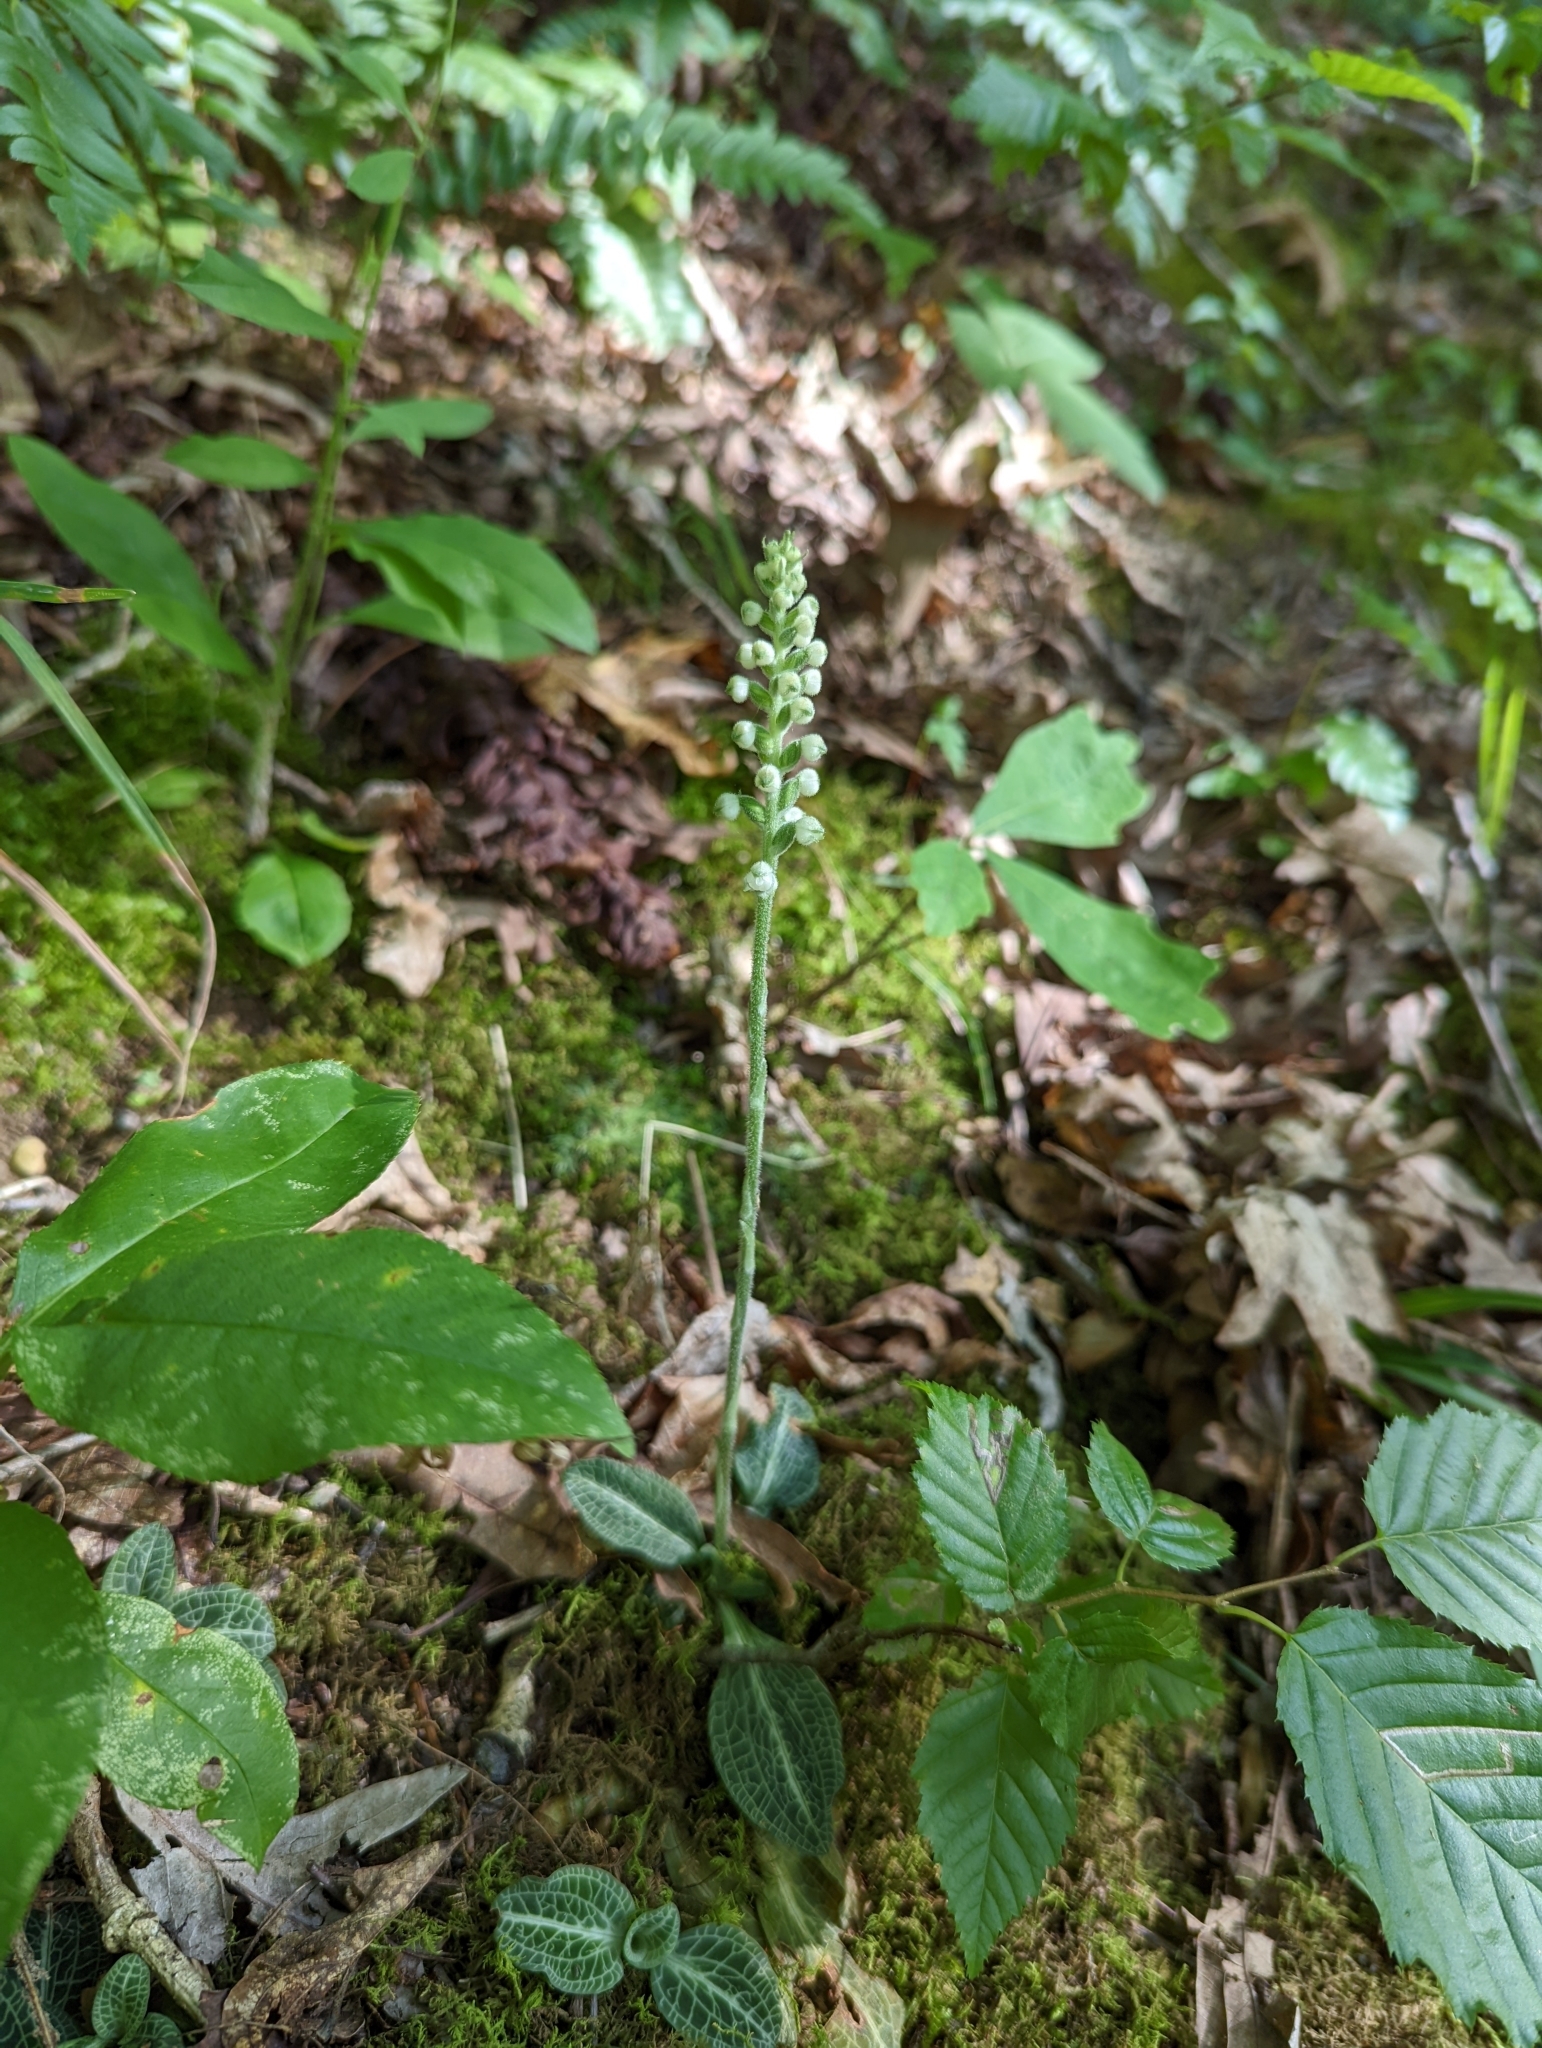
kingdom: Plantae
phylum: Tracheophyta
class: Liliopsida
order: Asparagales
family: Orchidaceae
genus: Goodyera
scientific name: Goodyera pubescens
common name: Downy rattlesnake-plantain
